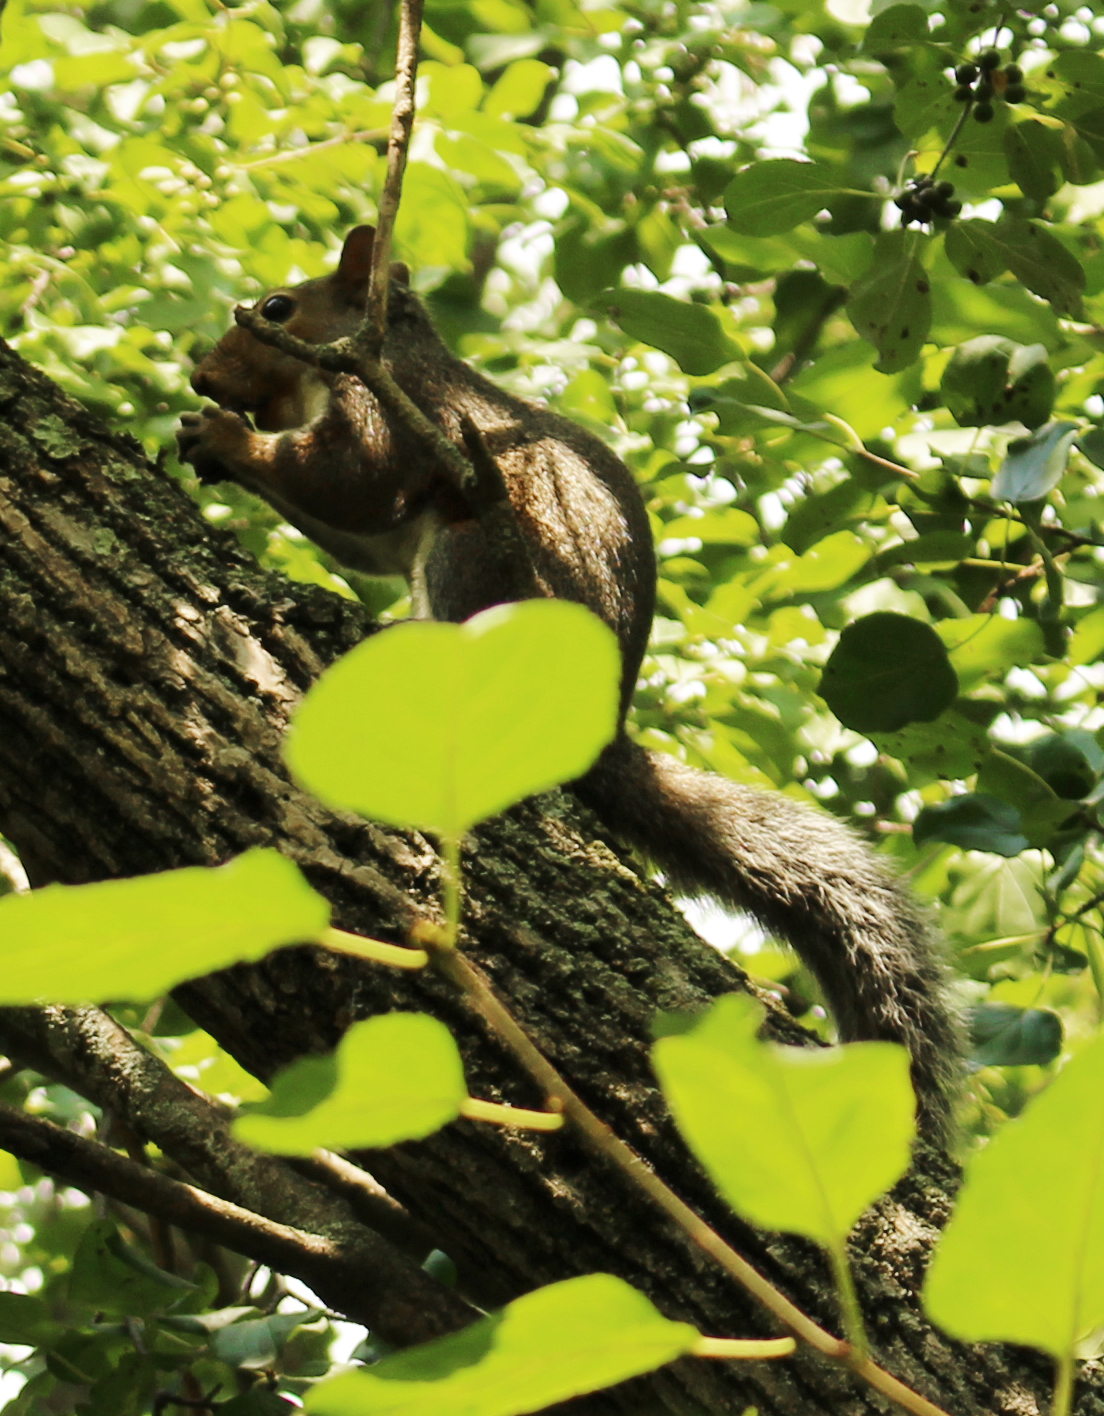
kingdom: Animalia
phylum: Chordata
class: Mammalia
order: Rodentia
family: Sciuridae
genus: Sciurus
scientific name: Sciurus carolinensis
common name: Eastern gray squirrel
